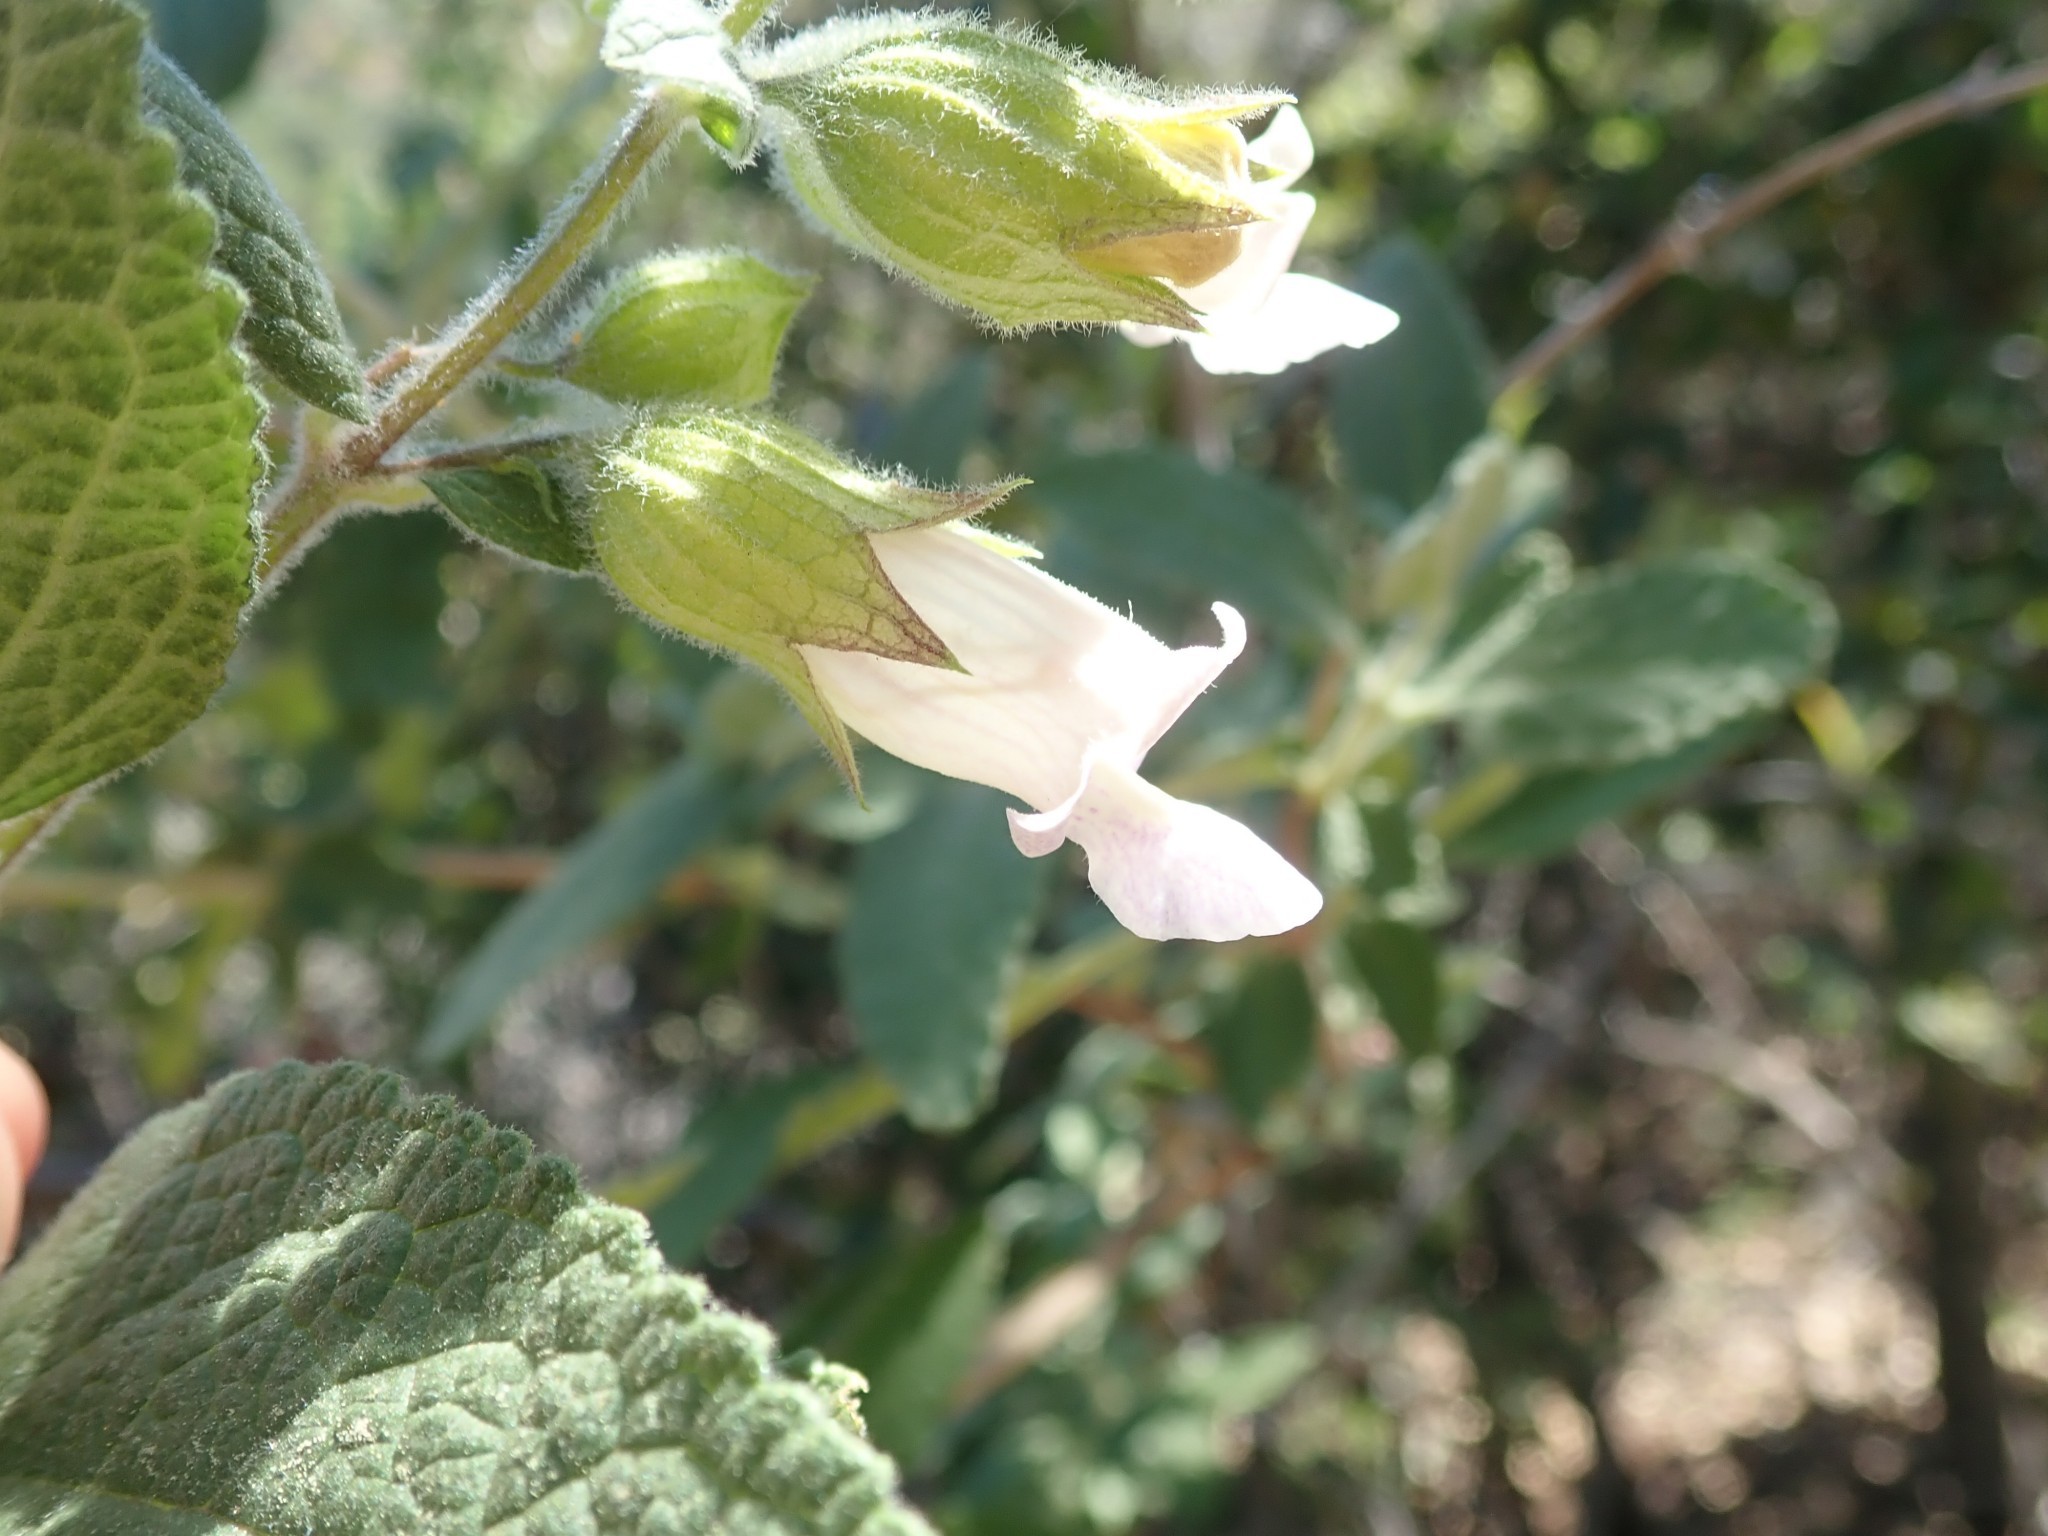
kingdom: Plantae
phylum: Tracheophyta
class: Magnoliopsida
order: Lamiales
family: Lamiaceae
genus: Lepechinia
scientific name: Lepechinia calycina
